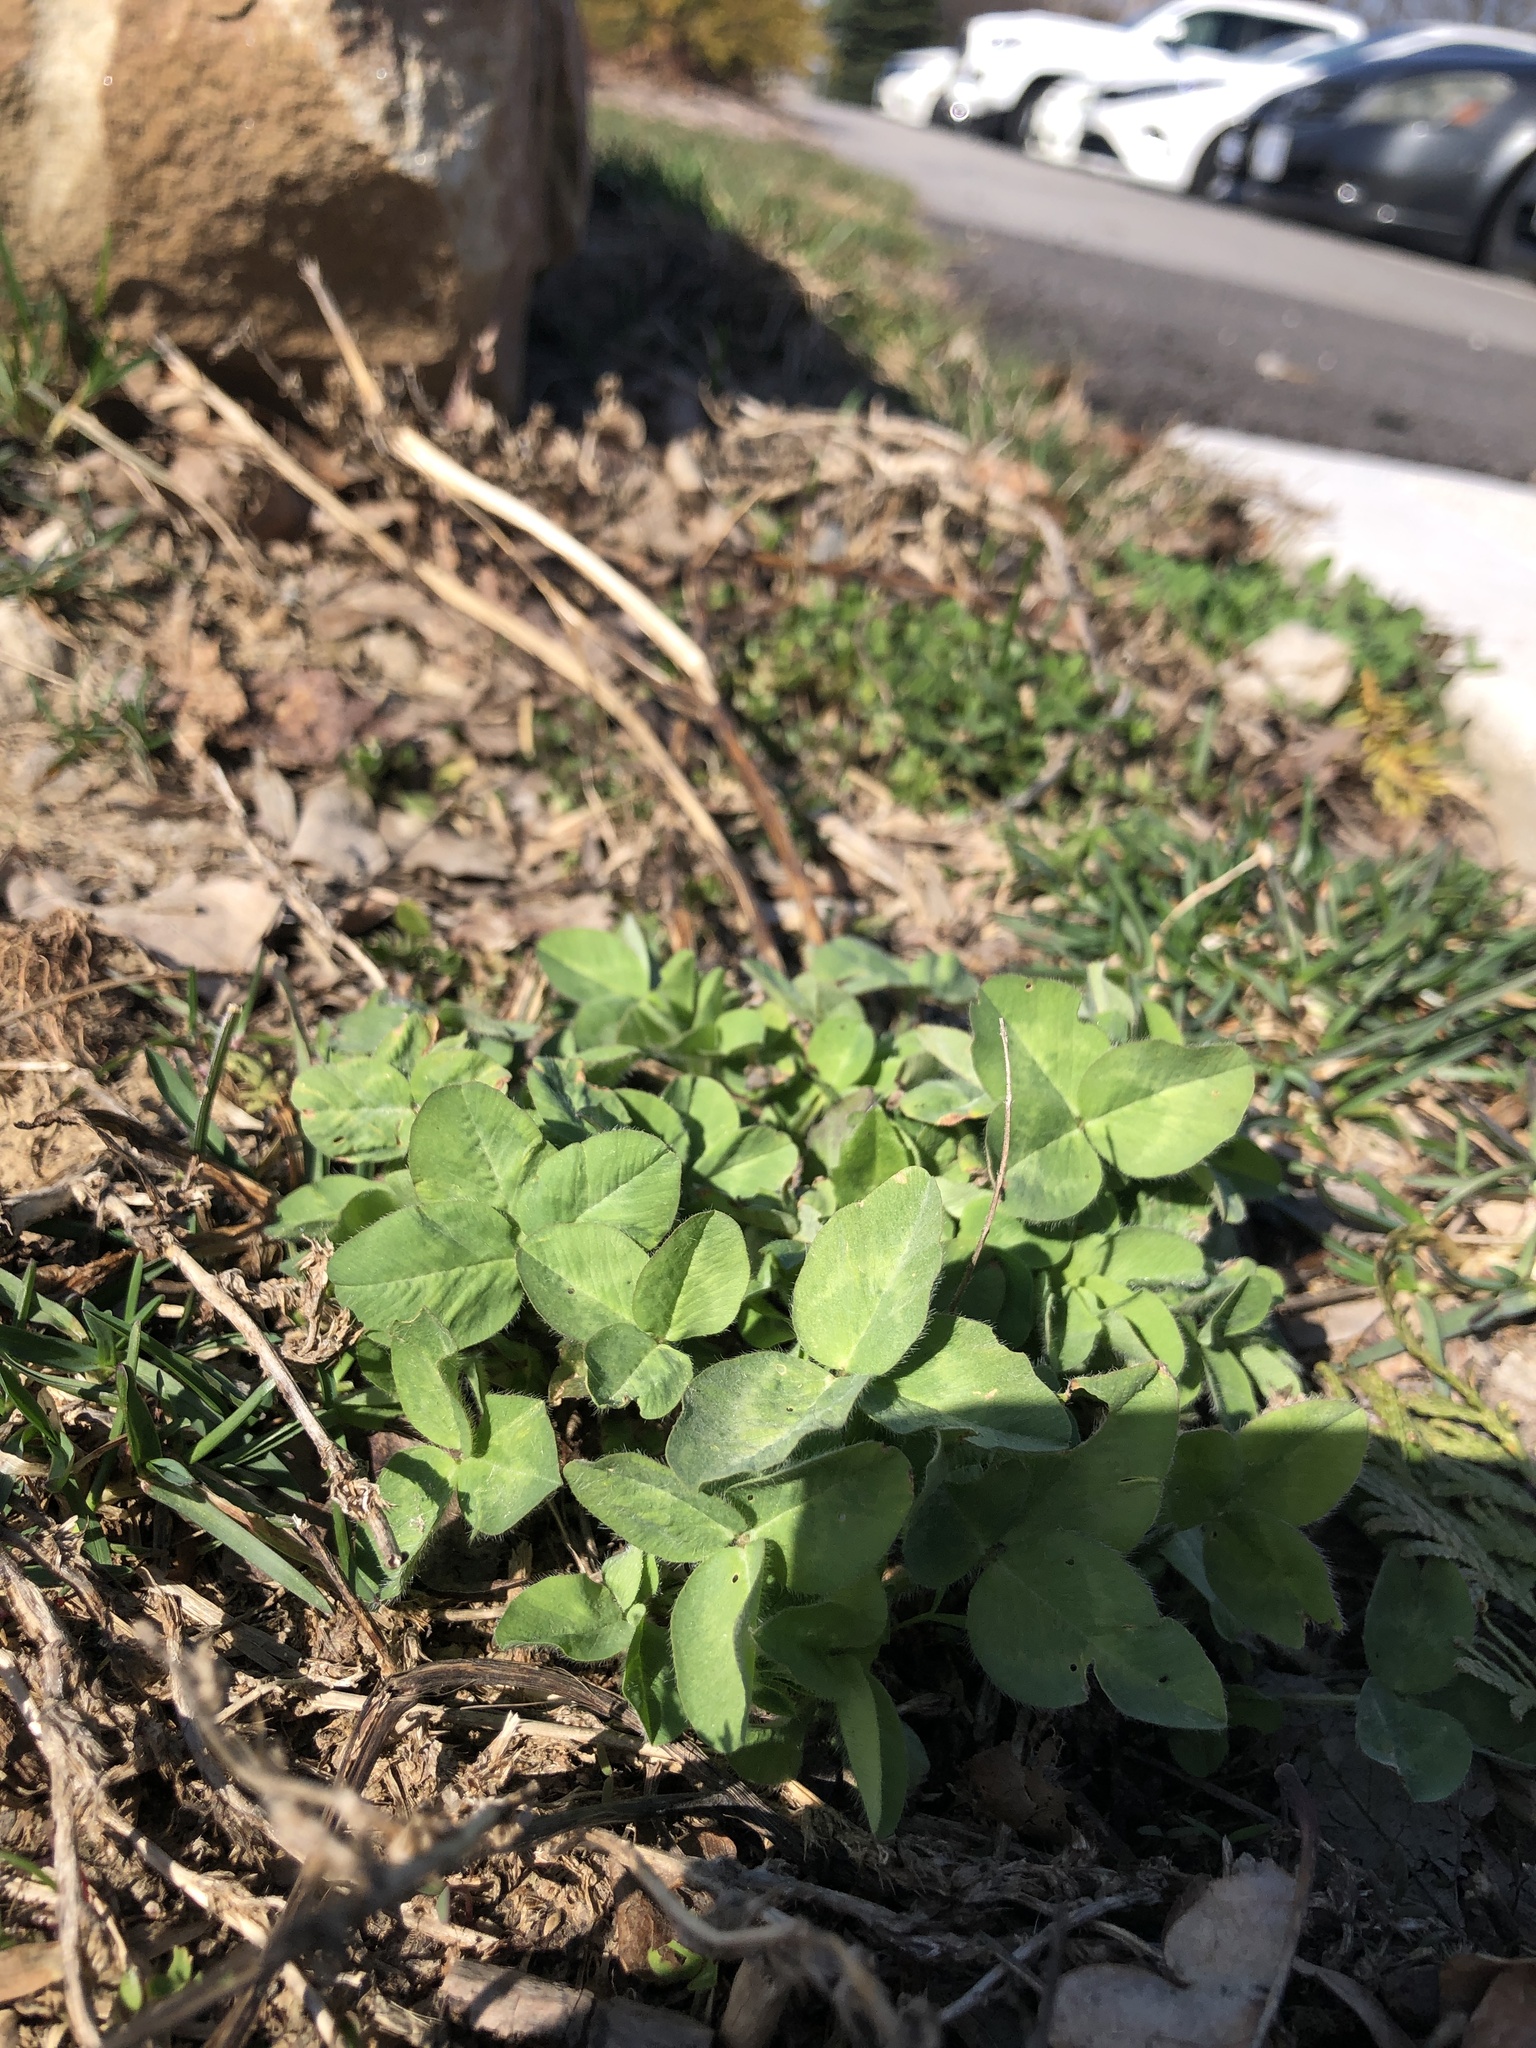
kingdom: Plantae
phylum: Tracheophyta
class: Magnoliopsida
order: Fabales
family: Fabaceae
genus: Trifolium
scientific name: Trifolium pratense
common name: Red clover
